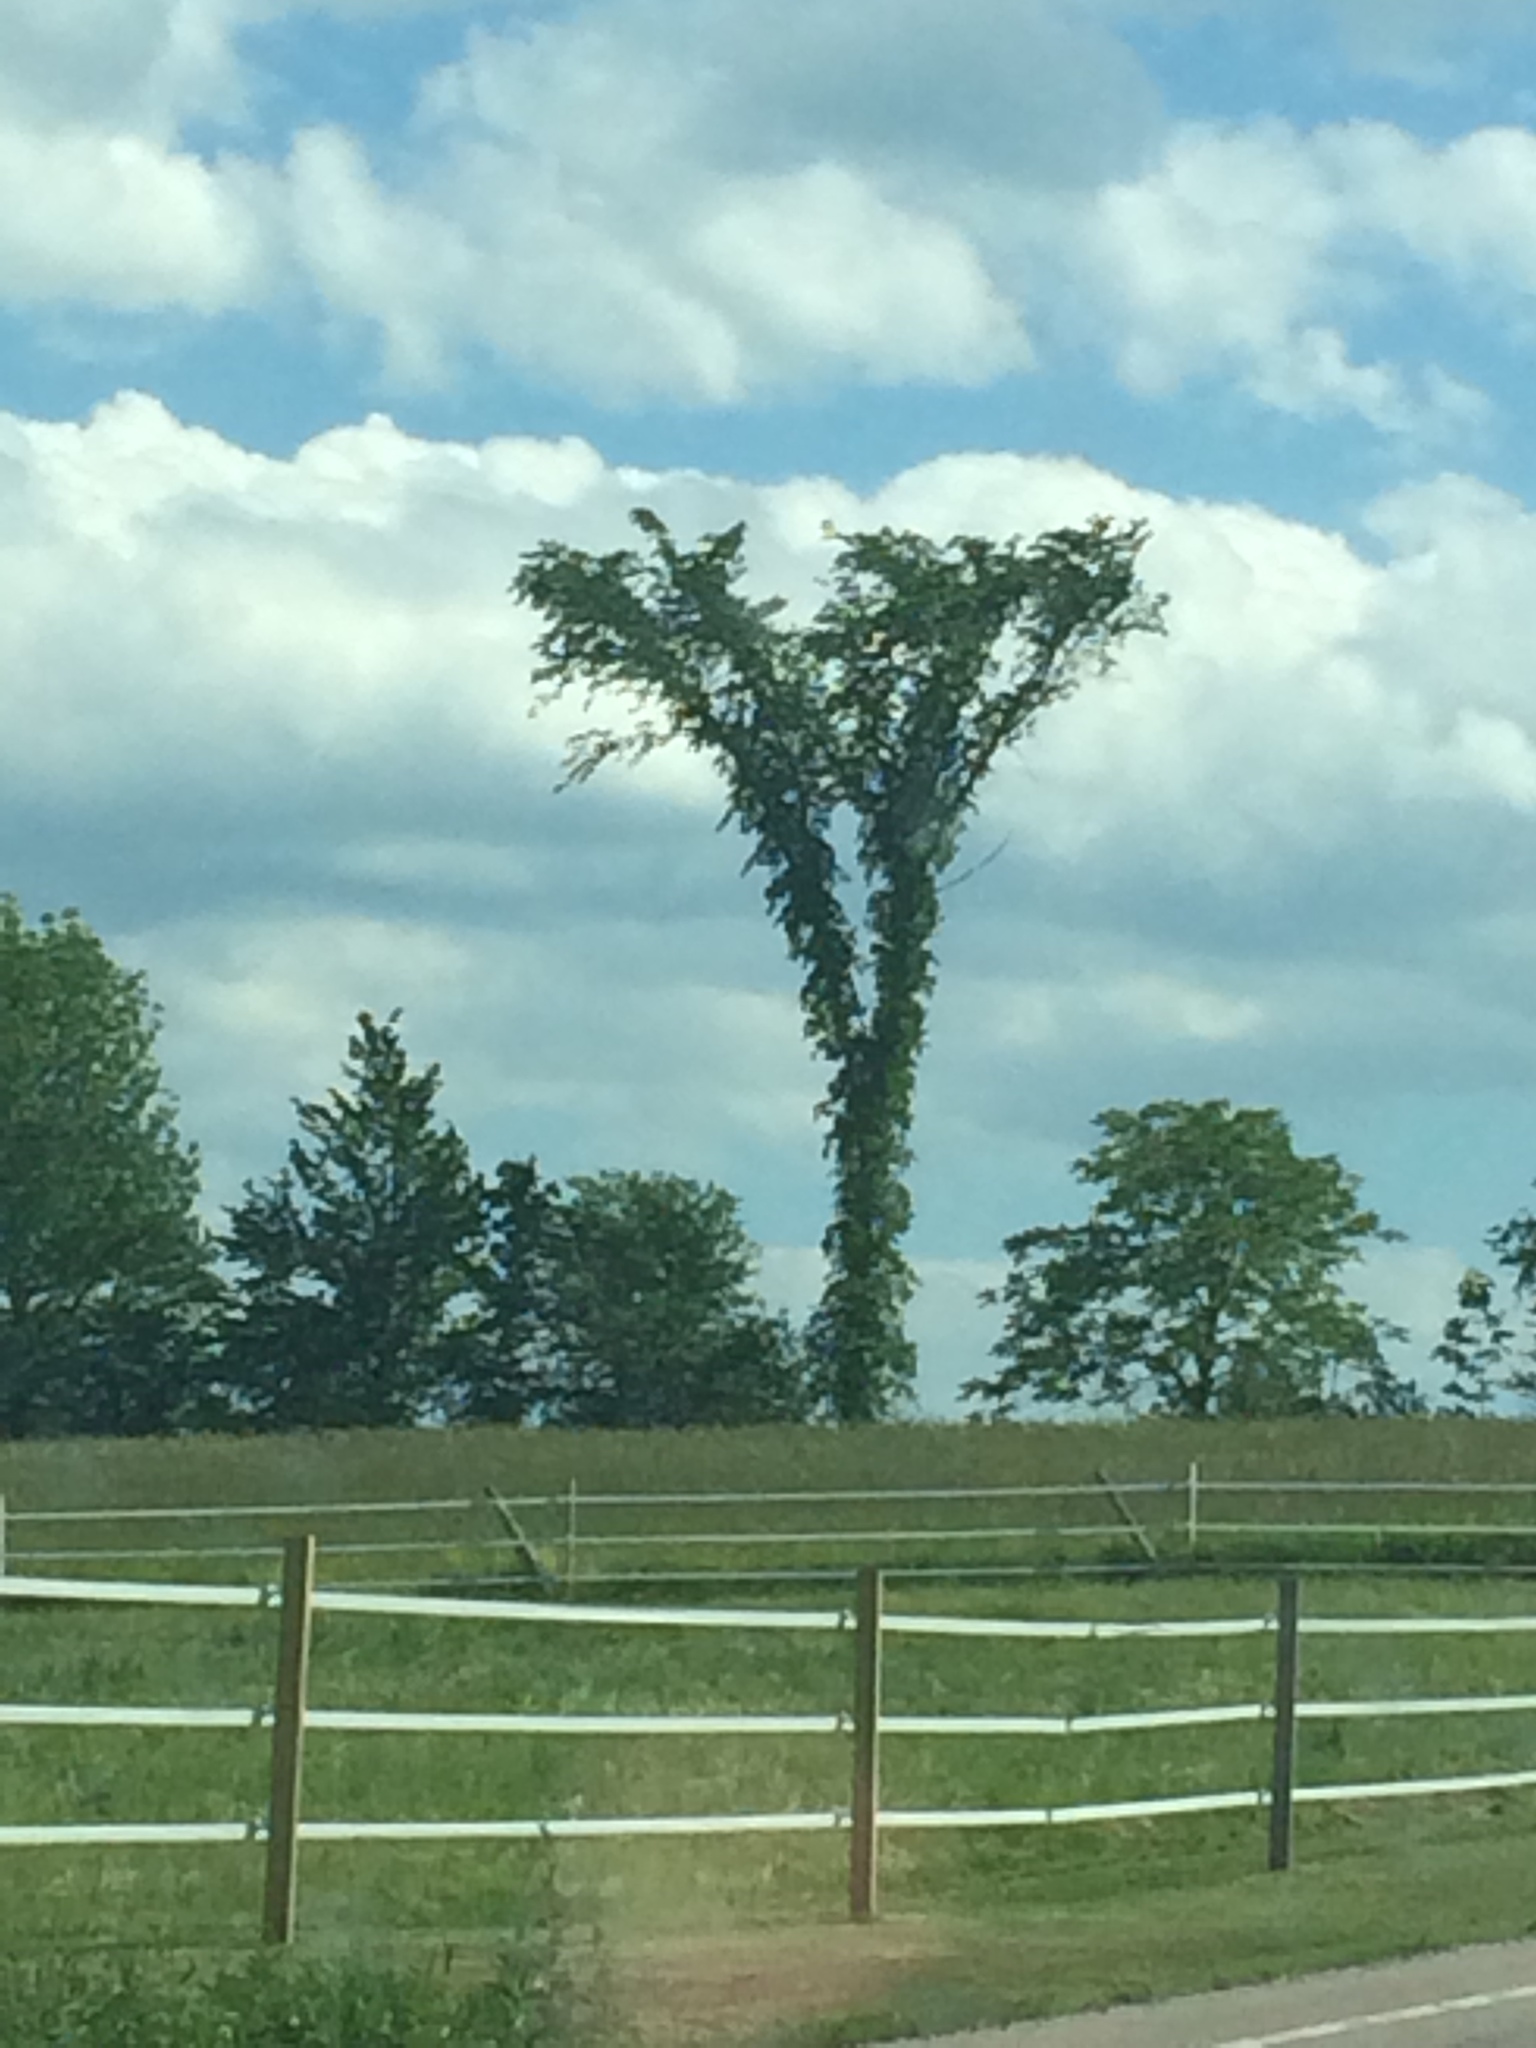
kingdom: Plantae
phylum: Tracheophyta
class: Magnoliopsida
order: Rosales
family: Ulmaceae
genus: Ulmus
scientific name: Ulmus americana
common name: American elm
